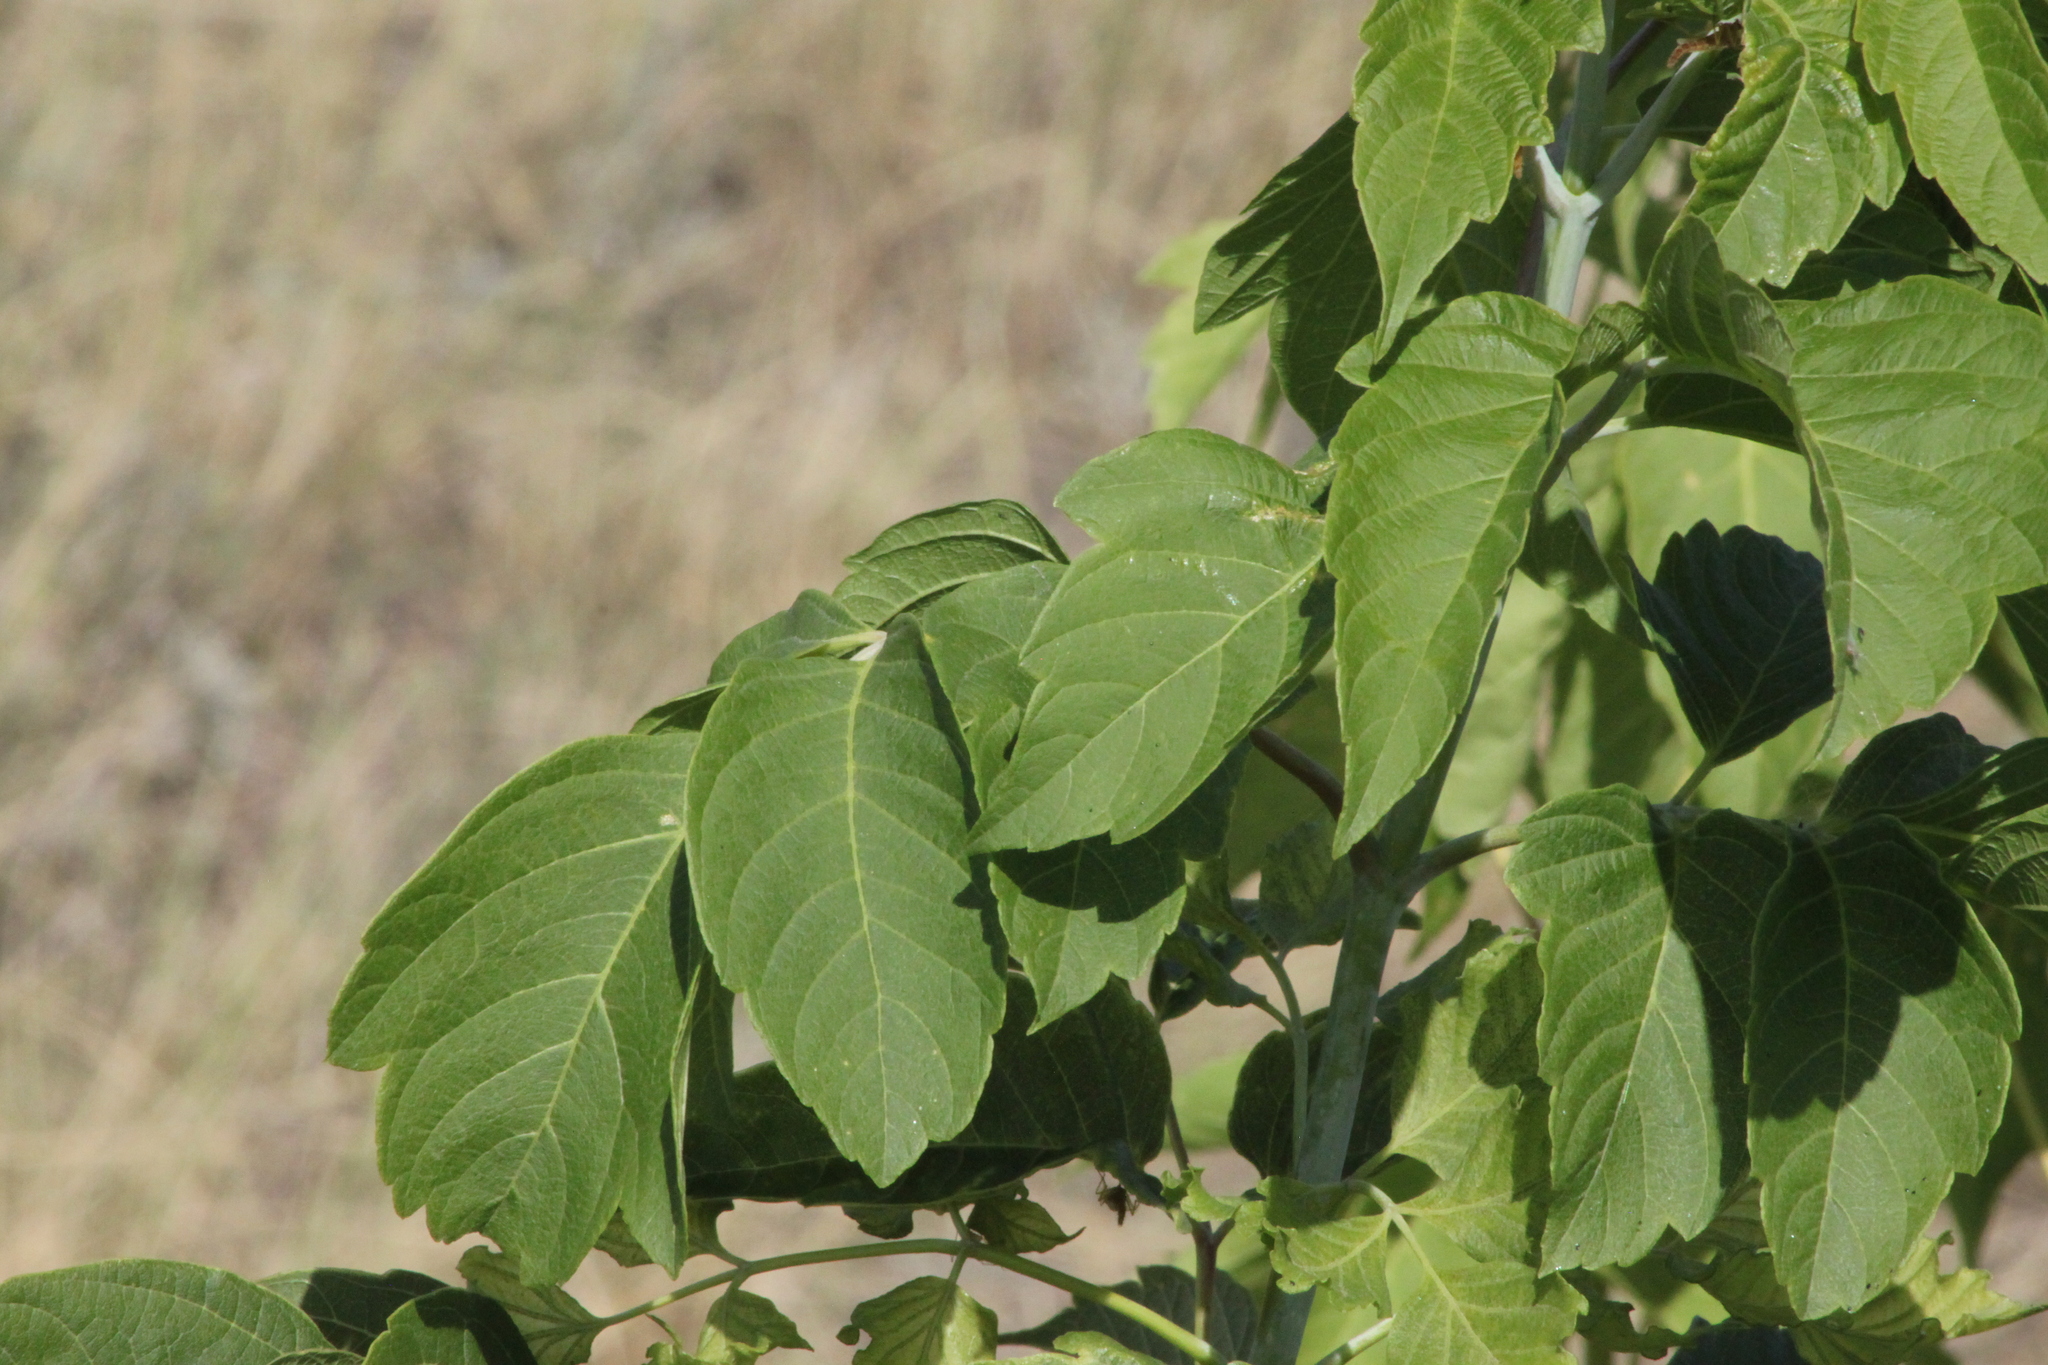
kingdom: Plantae
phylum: Tracheophyta
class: Magnoliopsida
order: Sapindales
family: Sapindaceae
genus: Acer
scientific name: Acer negundo
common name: Ashleaf maple
